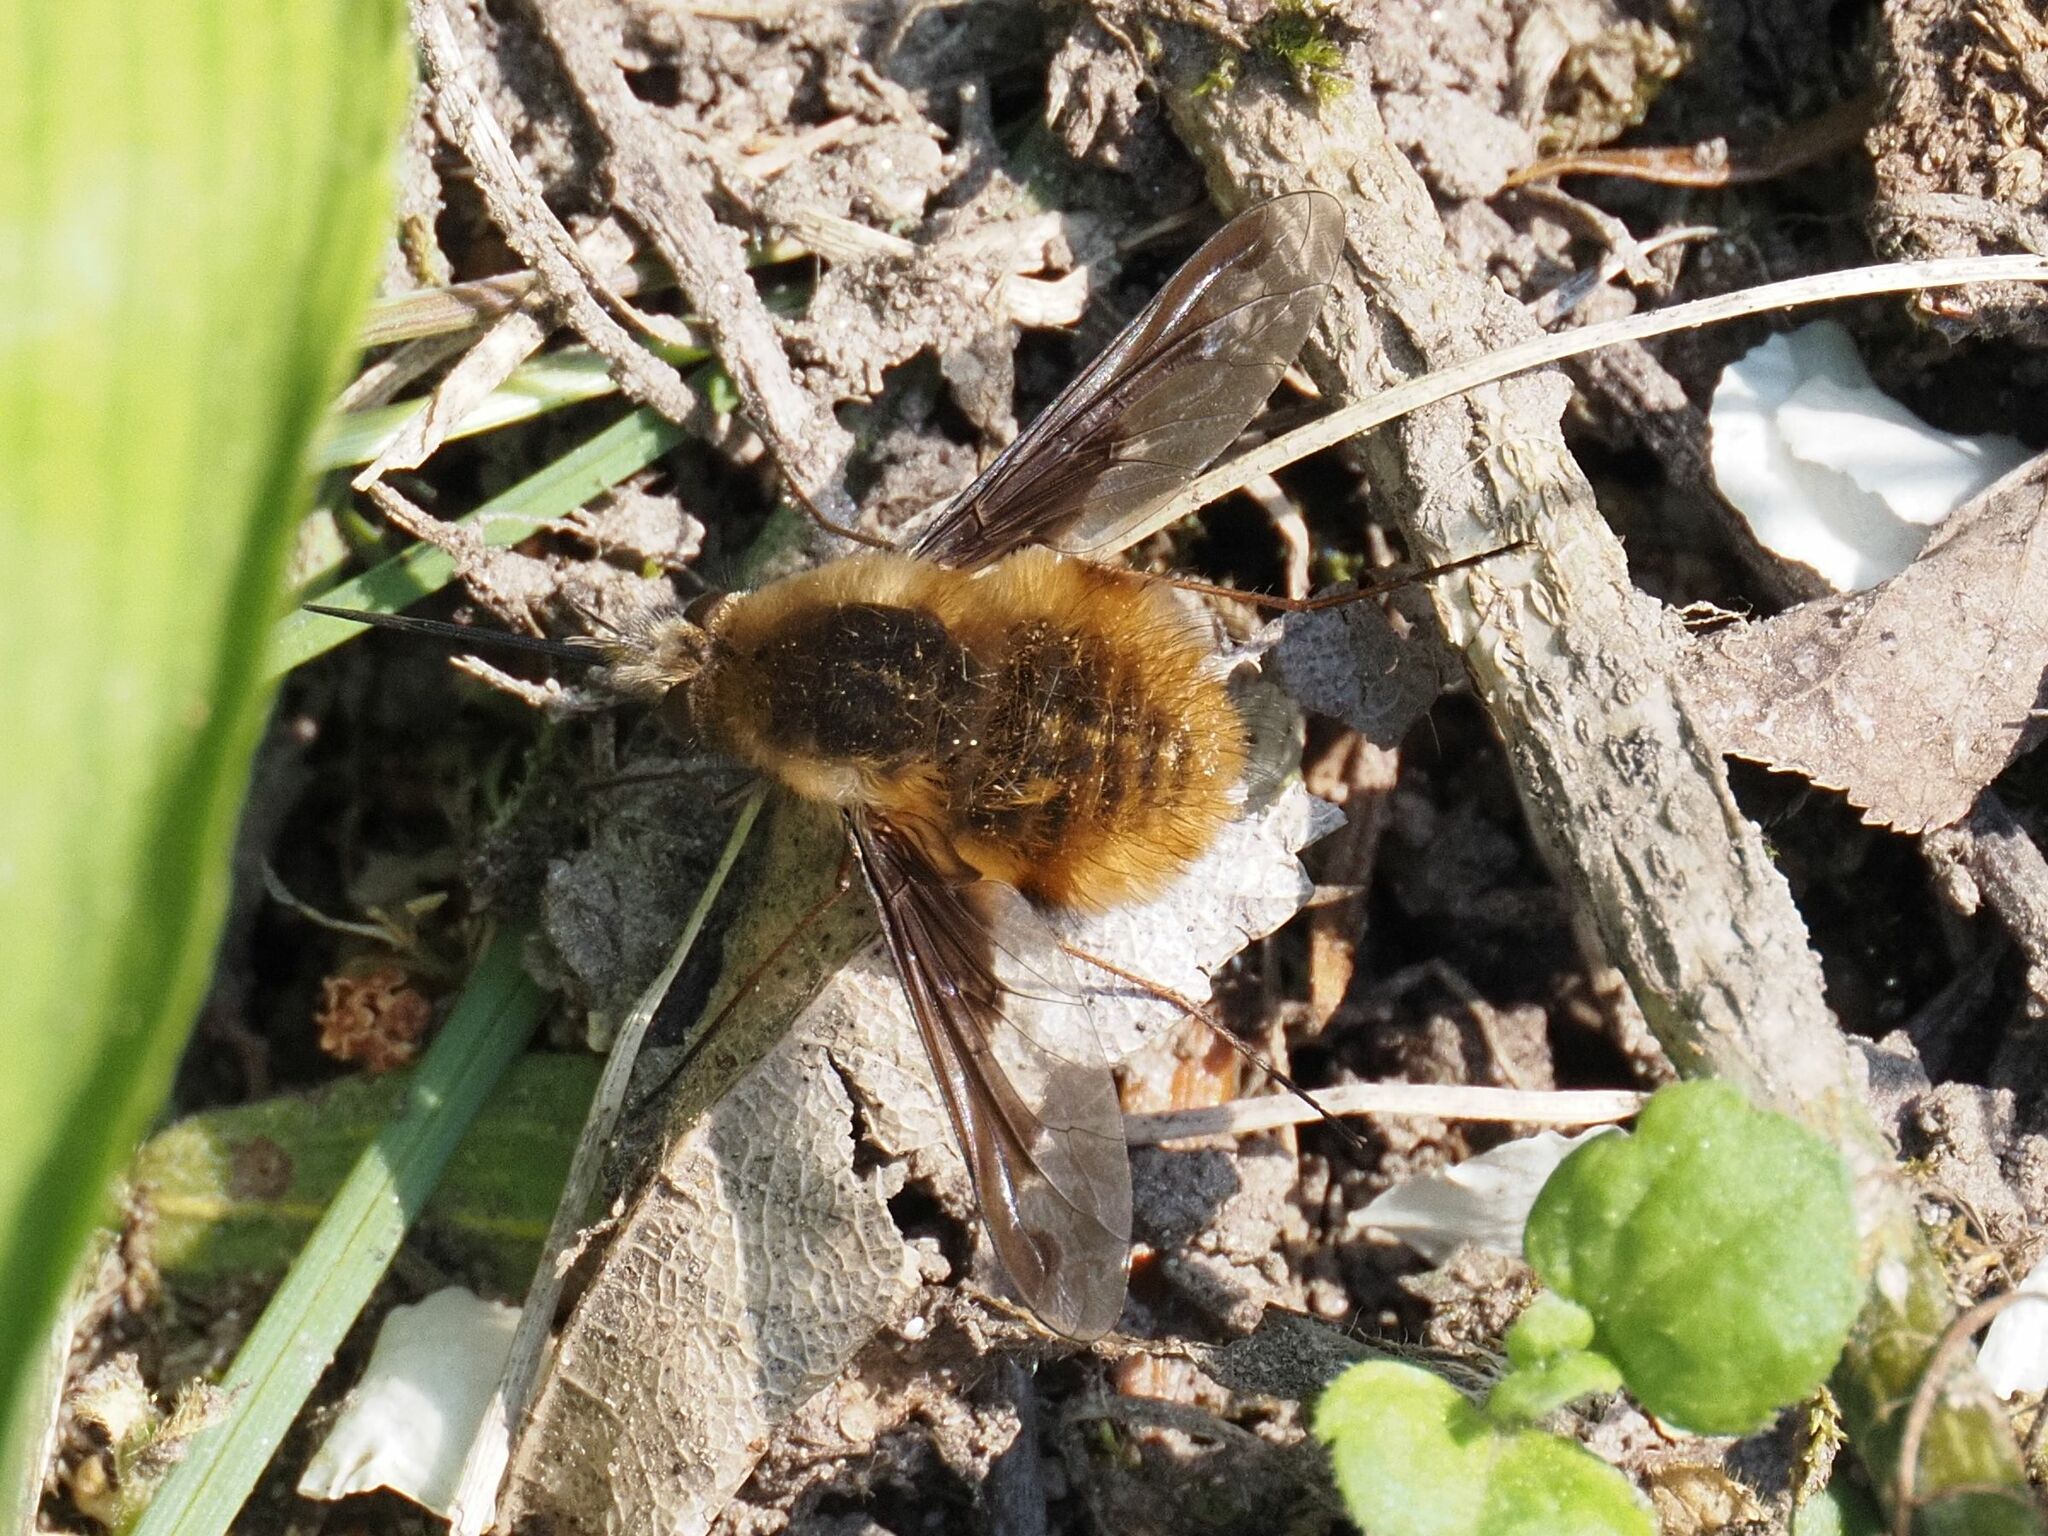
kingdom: Animalia
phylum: Arthropoda
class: Insecta
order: Diptera
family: Bombyliidae
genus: Bombylius
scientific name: Bombylius major
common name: Bee fly
